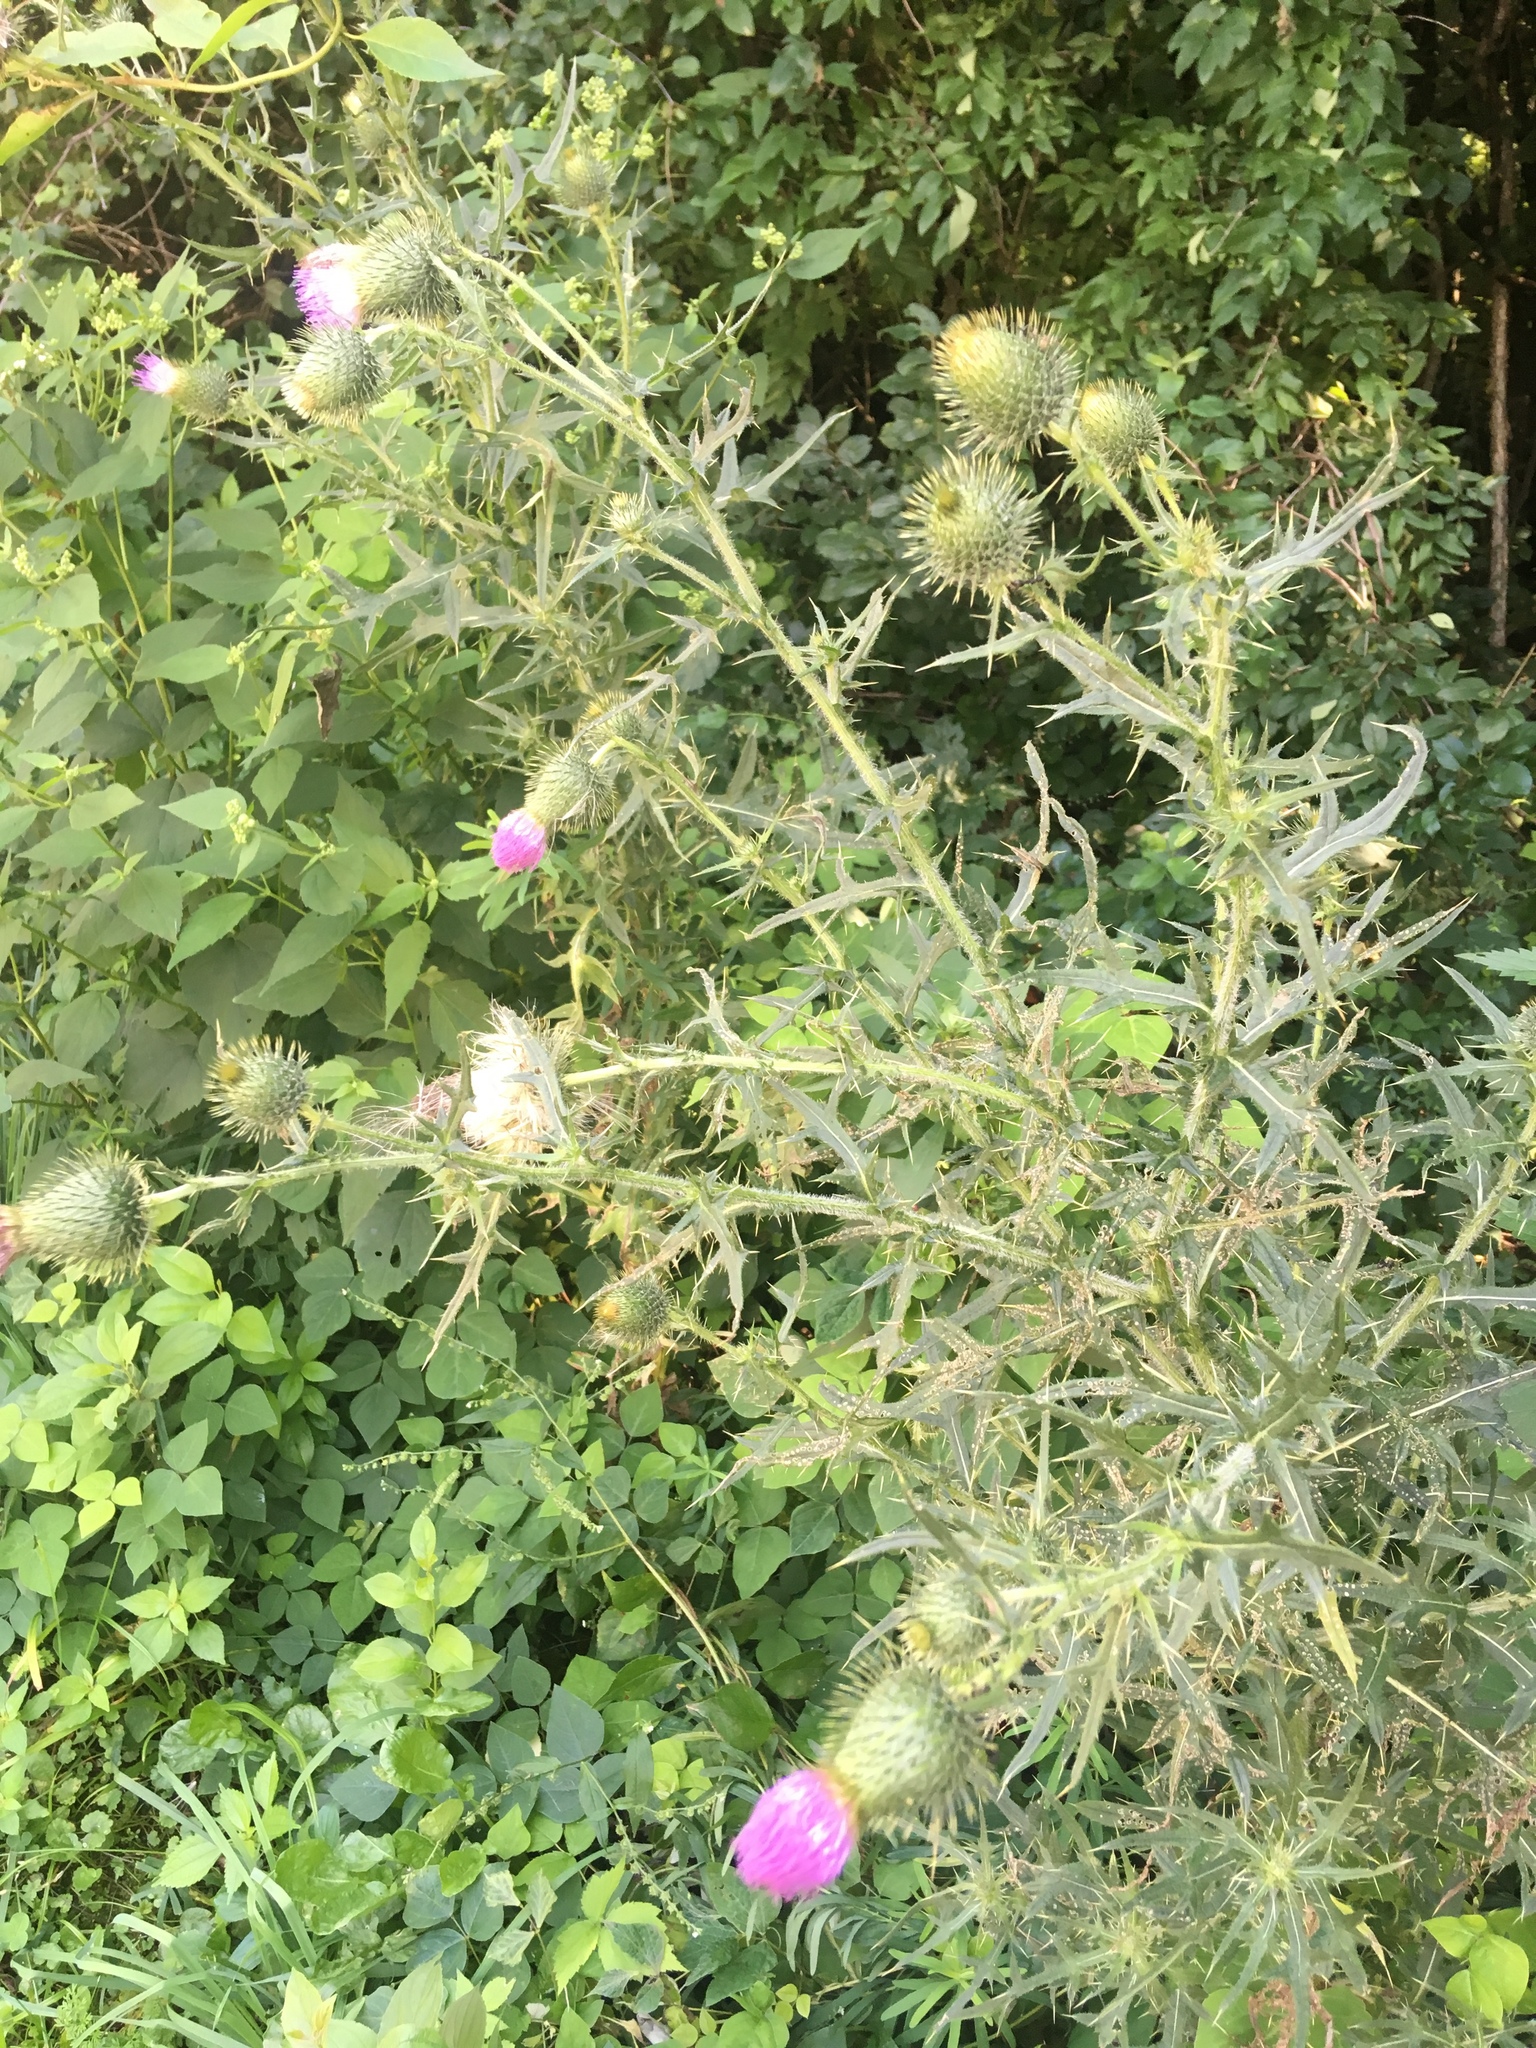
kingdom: Plantae
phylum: Tracheophyta
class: Magnoliopsida
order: Asterales
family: Asteraceae
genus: Cirsium
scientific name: Cirsium vulgare
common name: Bull thistle
